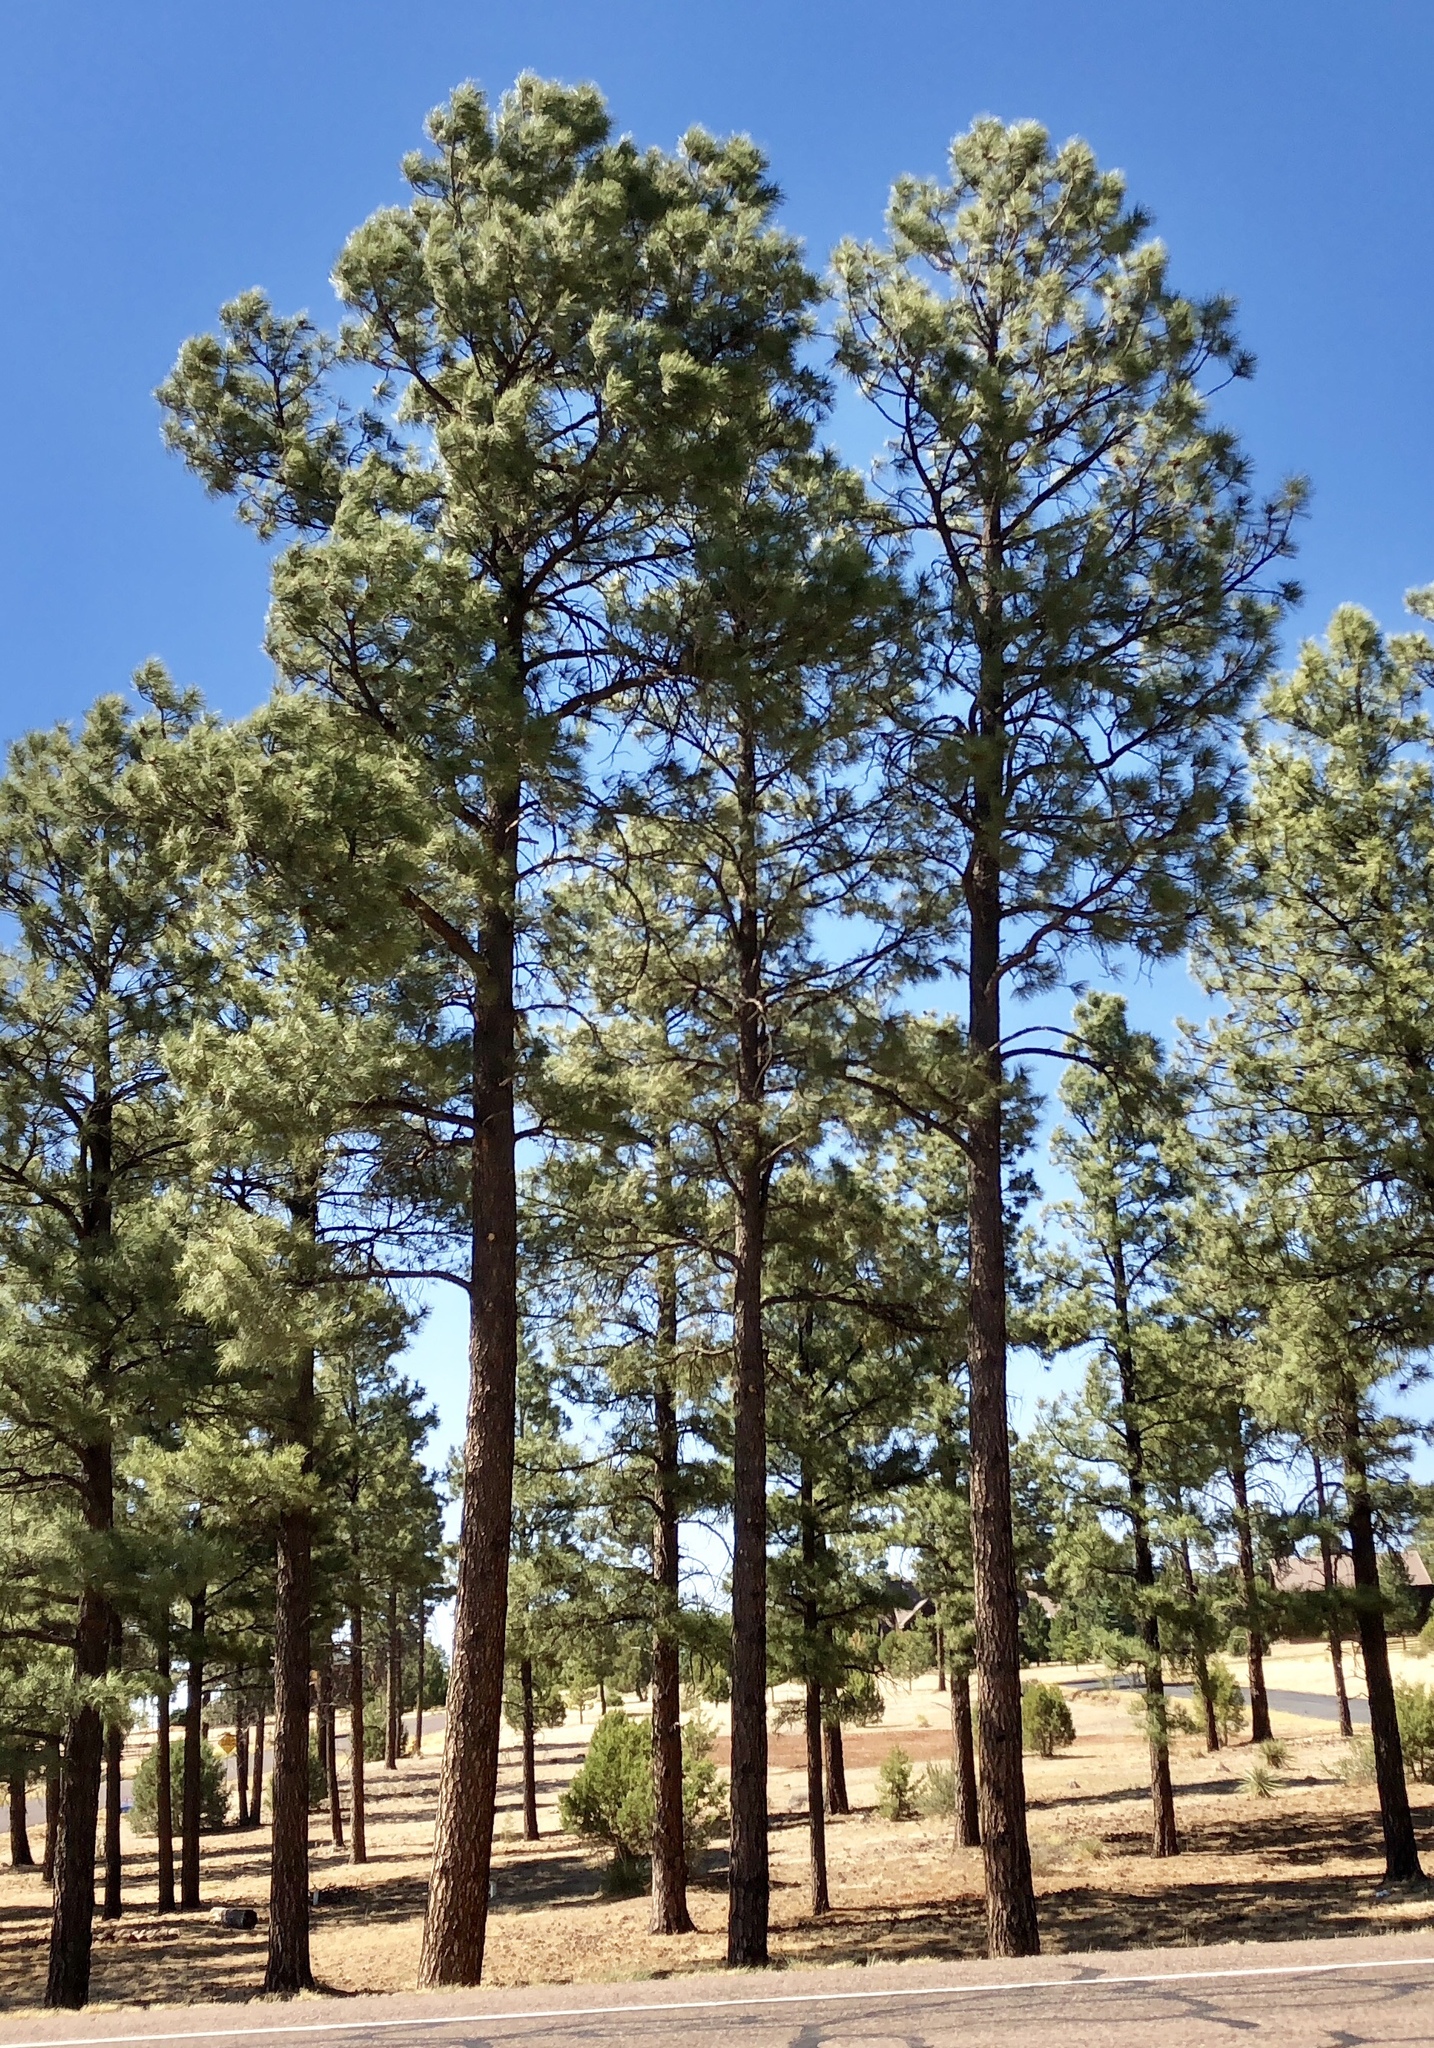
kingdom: Plantae
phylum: Tracheophyta
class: Pinopsida
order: Pinales
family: Pinaceae
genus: Pinus
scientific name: Pinus ponderosa
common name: Western yellow-pine
